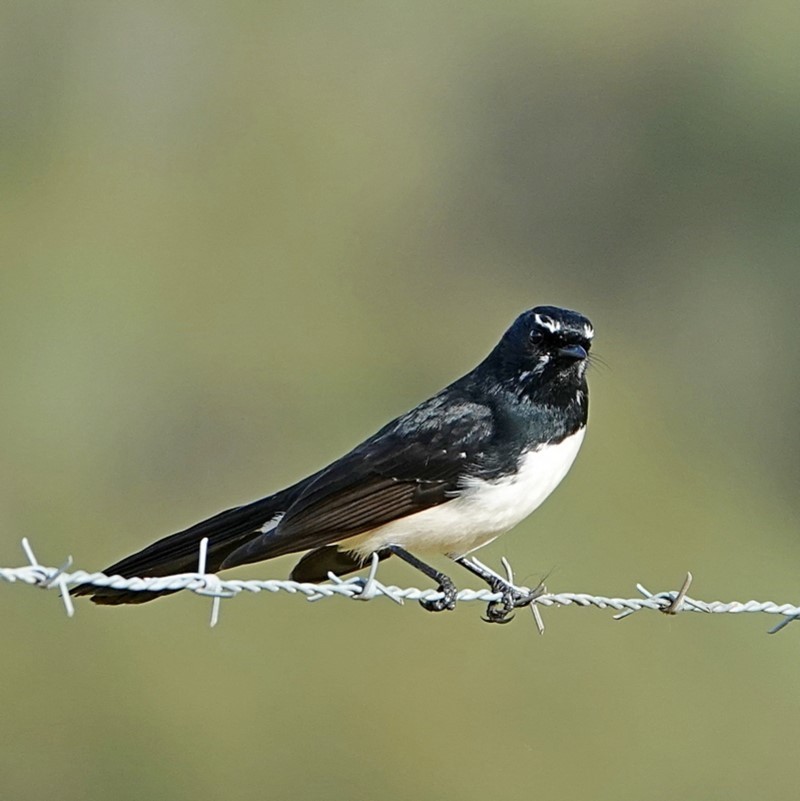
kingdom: Animalia
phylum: Chordata
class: Aves
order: Passeriformes
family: Rhipiduridae
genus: Rhipidura
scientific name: Rhipidura leucophrys
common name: Willie wagtail
